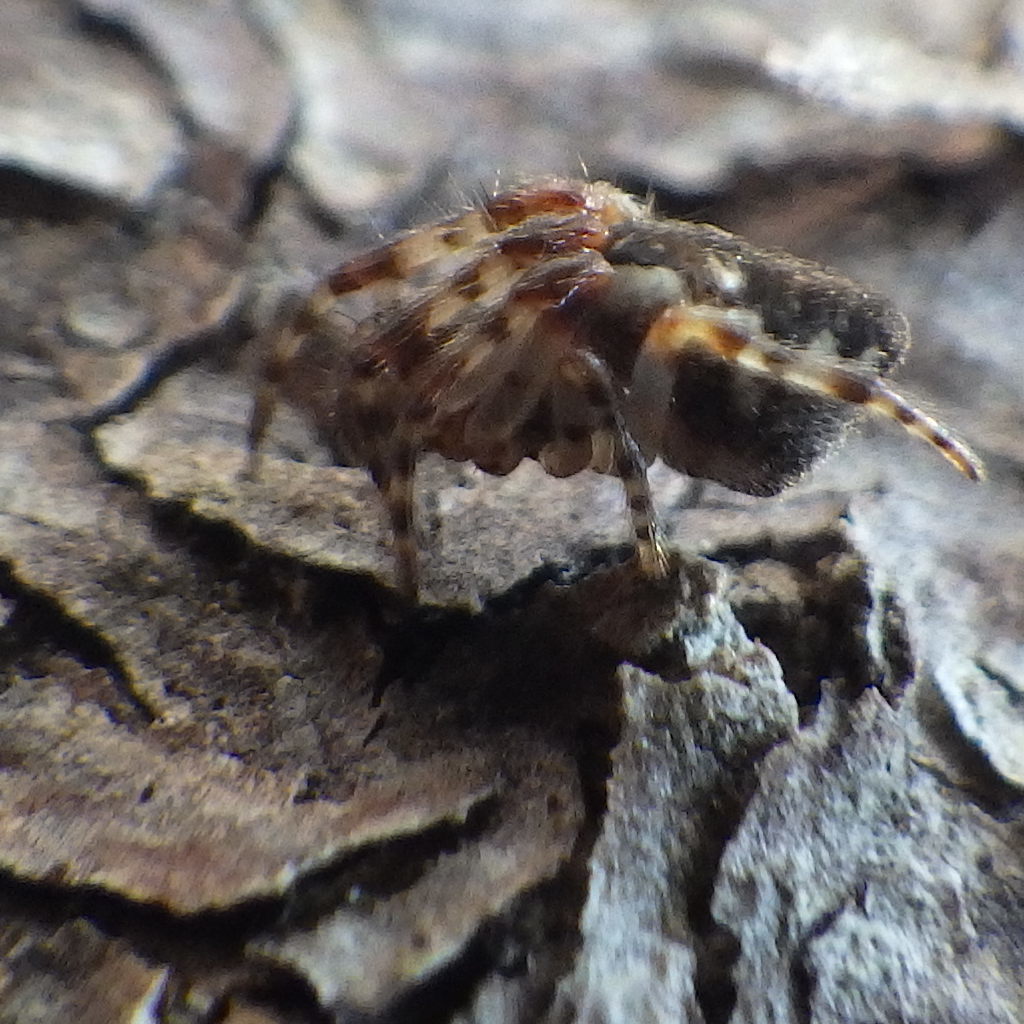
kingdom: Animalia
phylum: Arthropoda
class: Arachnida
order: Araneae
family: Araneidae
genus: Cyclosa
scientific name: Cyclosa conica
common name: Conical trashline orbweaver
